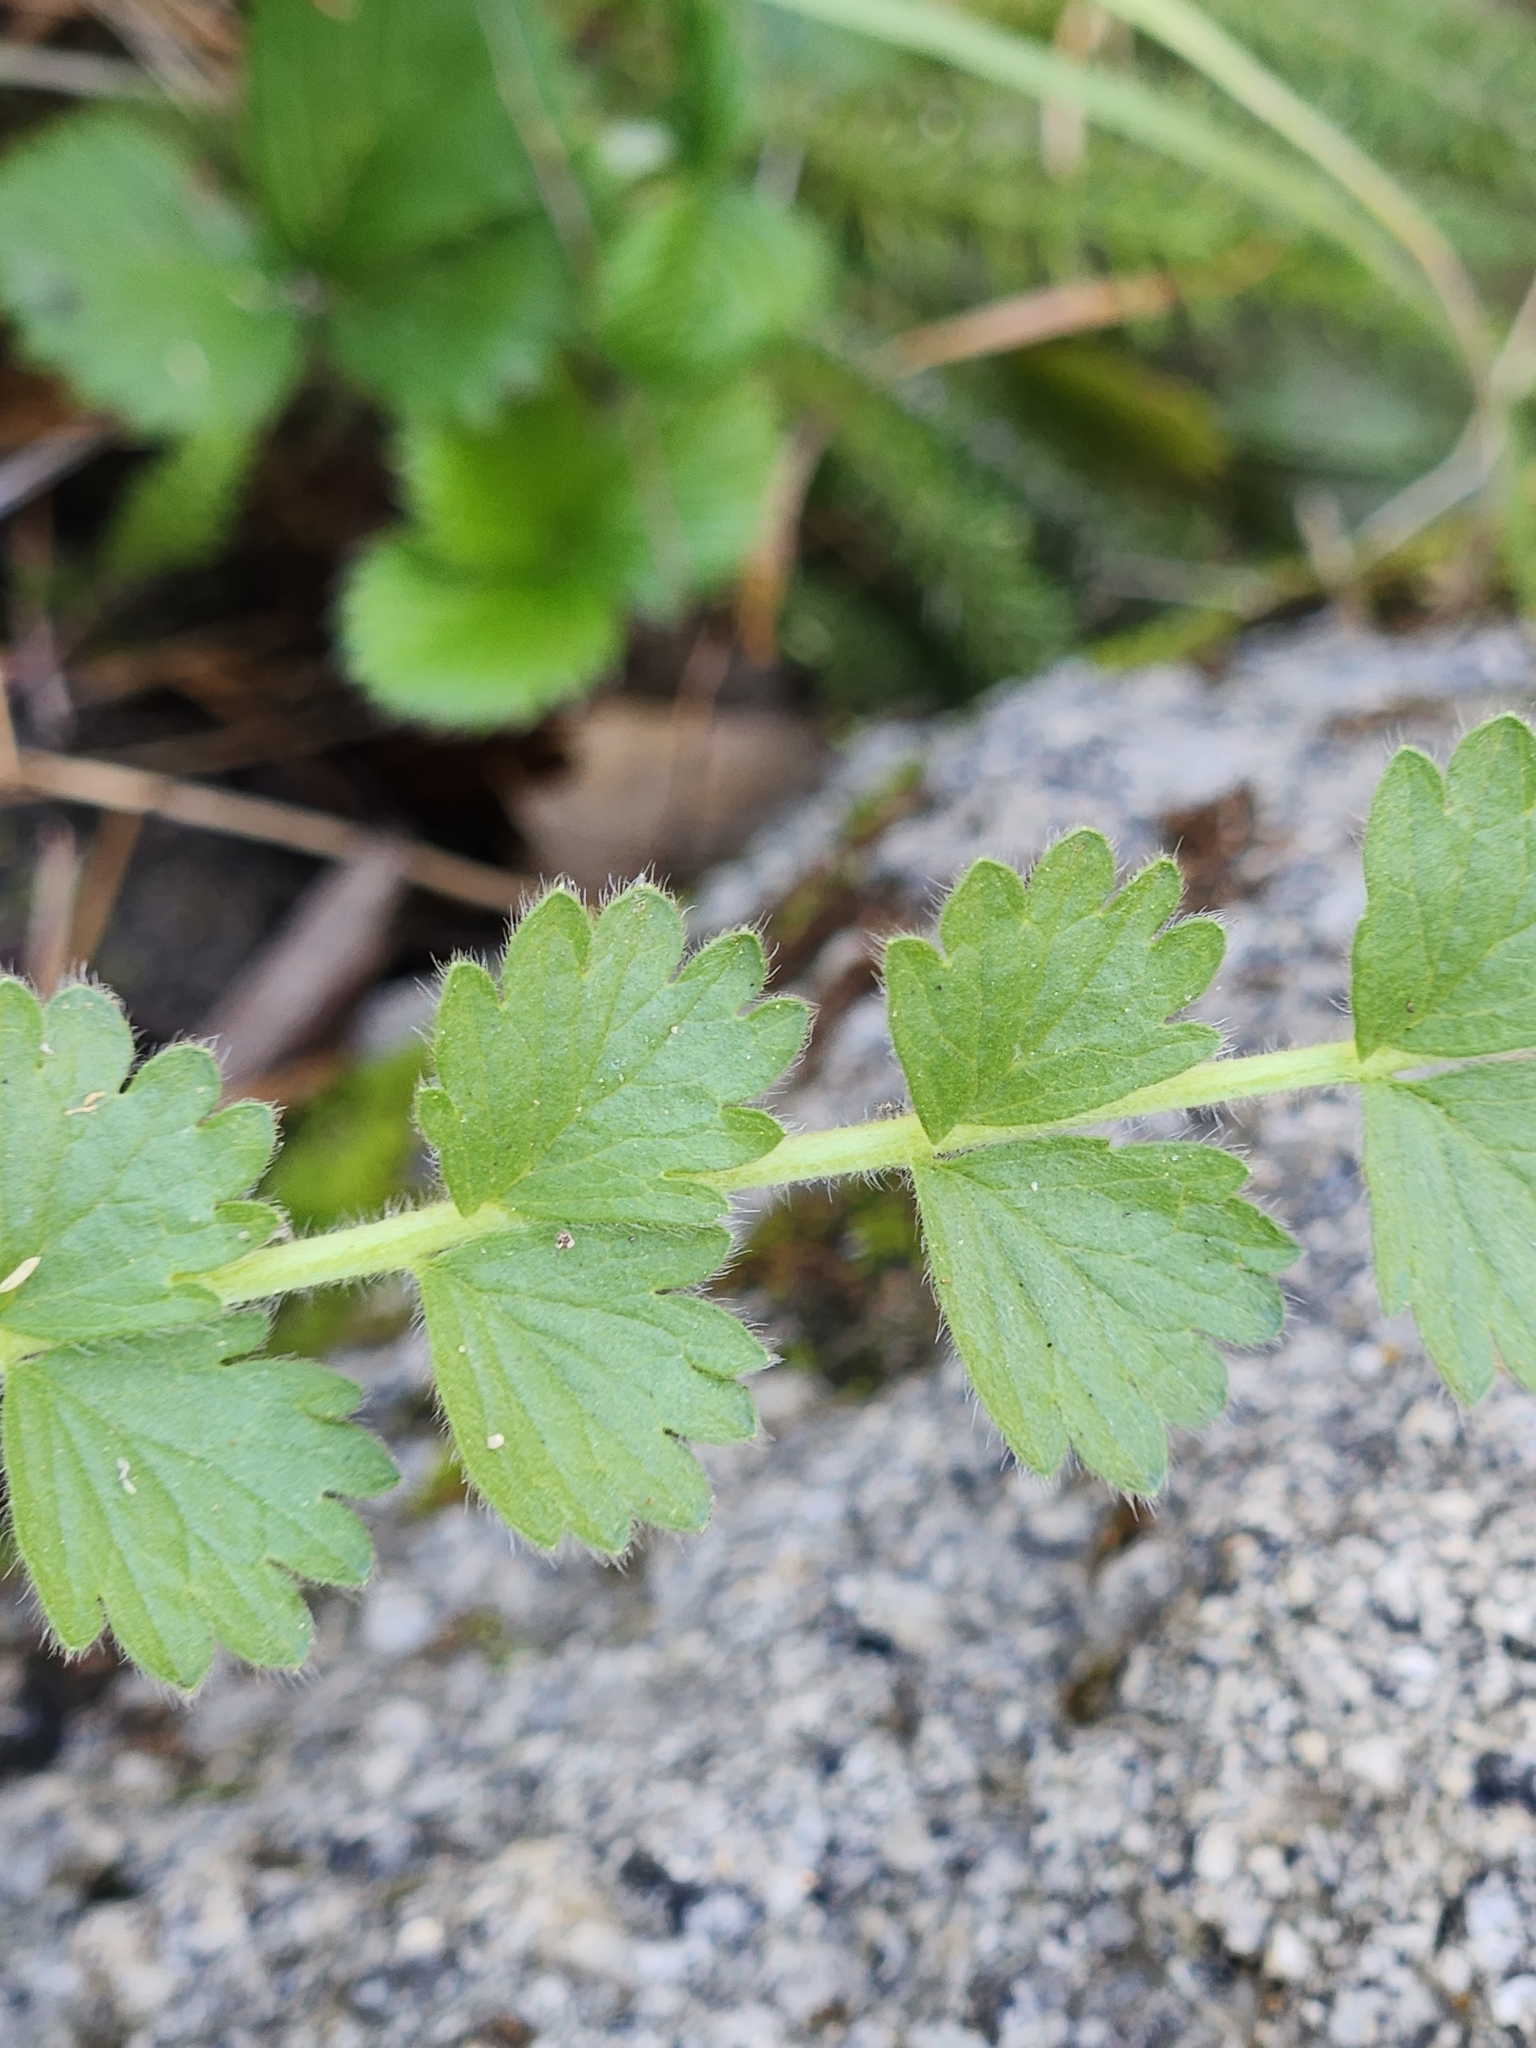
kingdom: Plantae
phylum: Tracheophyta
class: Magnoliopsida
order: Rosales
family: Rosaceae
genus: Potentilla
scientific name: Potentilla clevelandii
